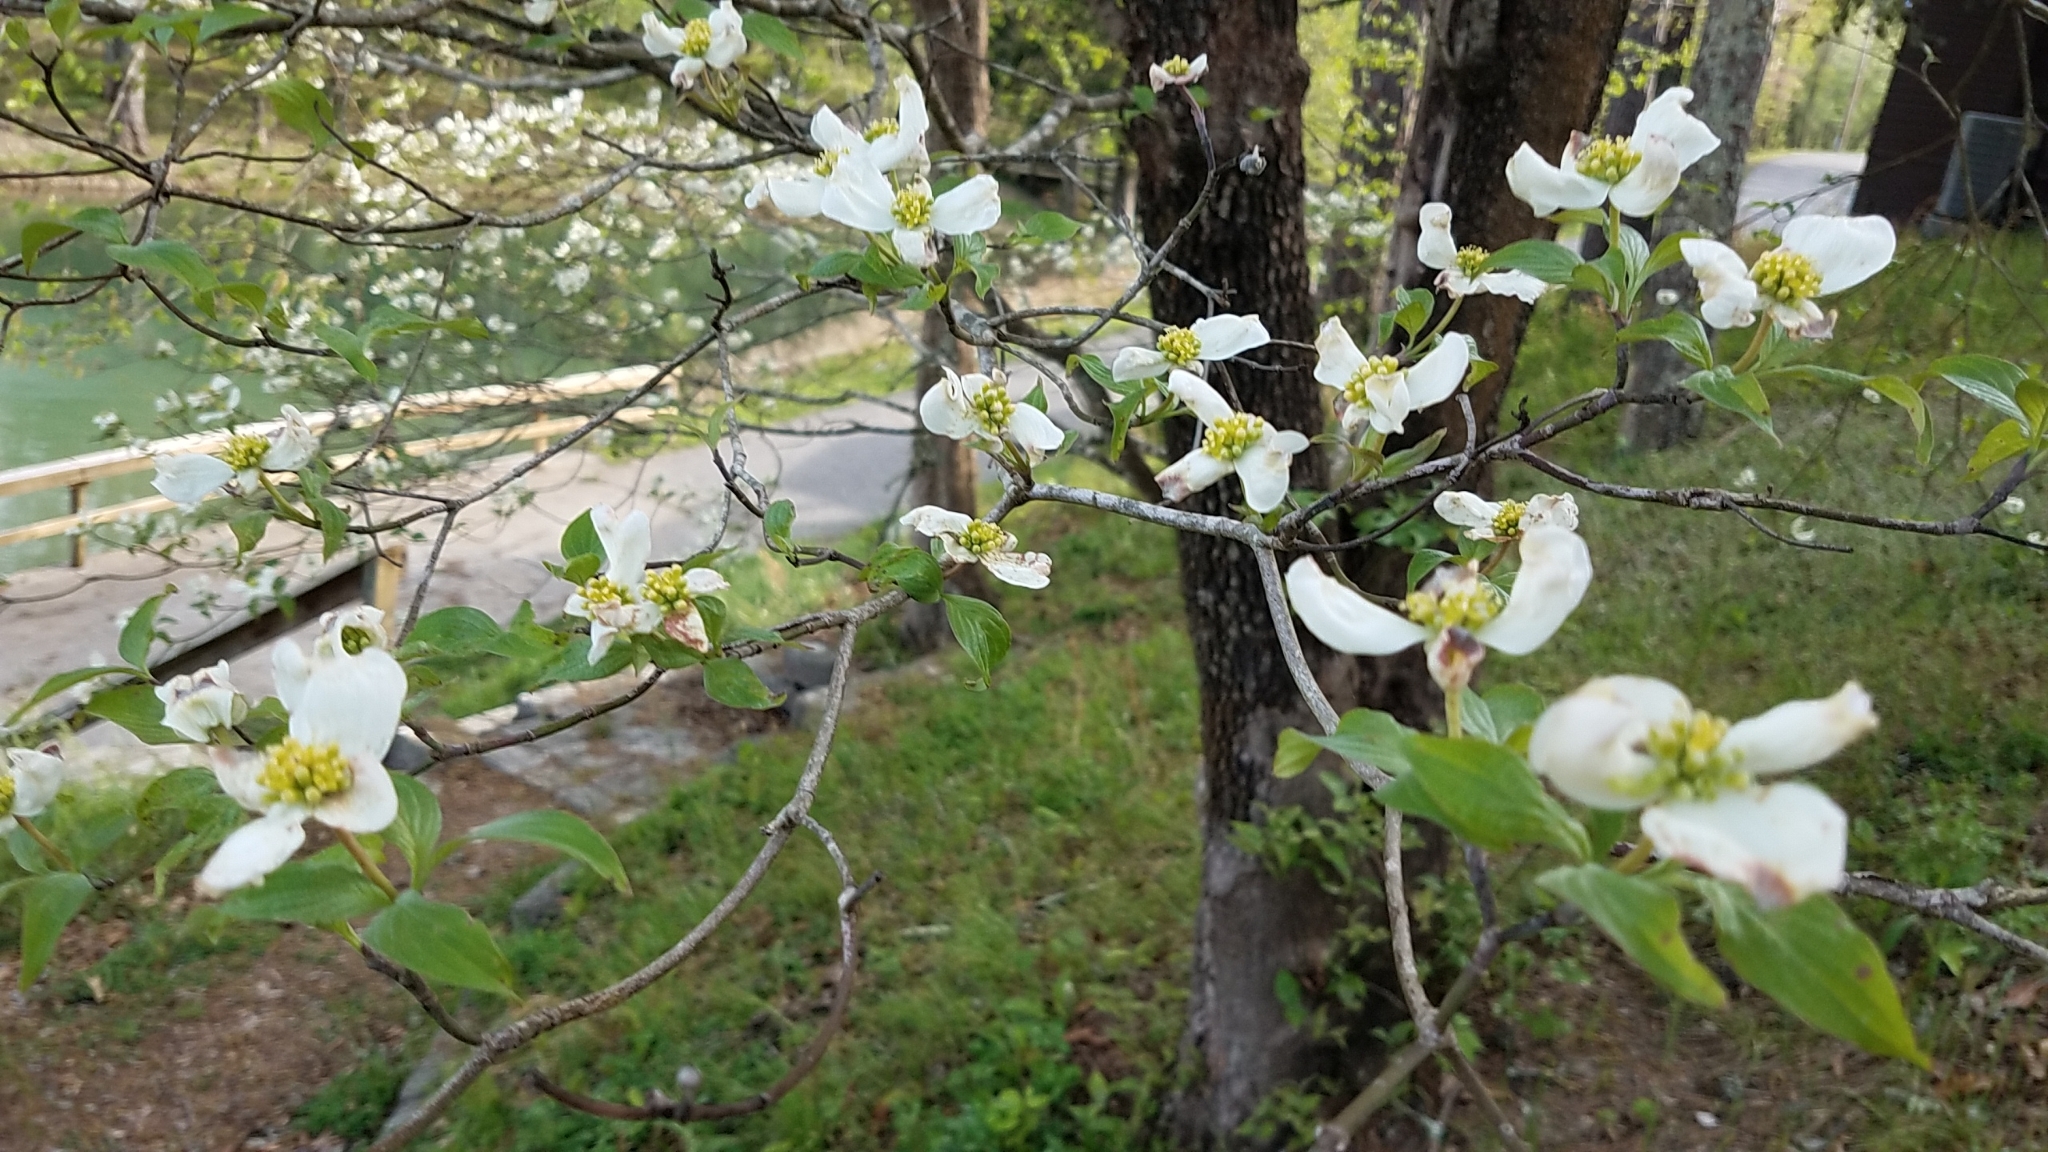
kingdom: Plantae
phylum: Tracheophyta
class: Magnoliopsida
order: Cornales
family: Cornaceae
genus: Cornus
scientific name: Cornus florida
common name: Flowering dogwood
